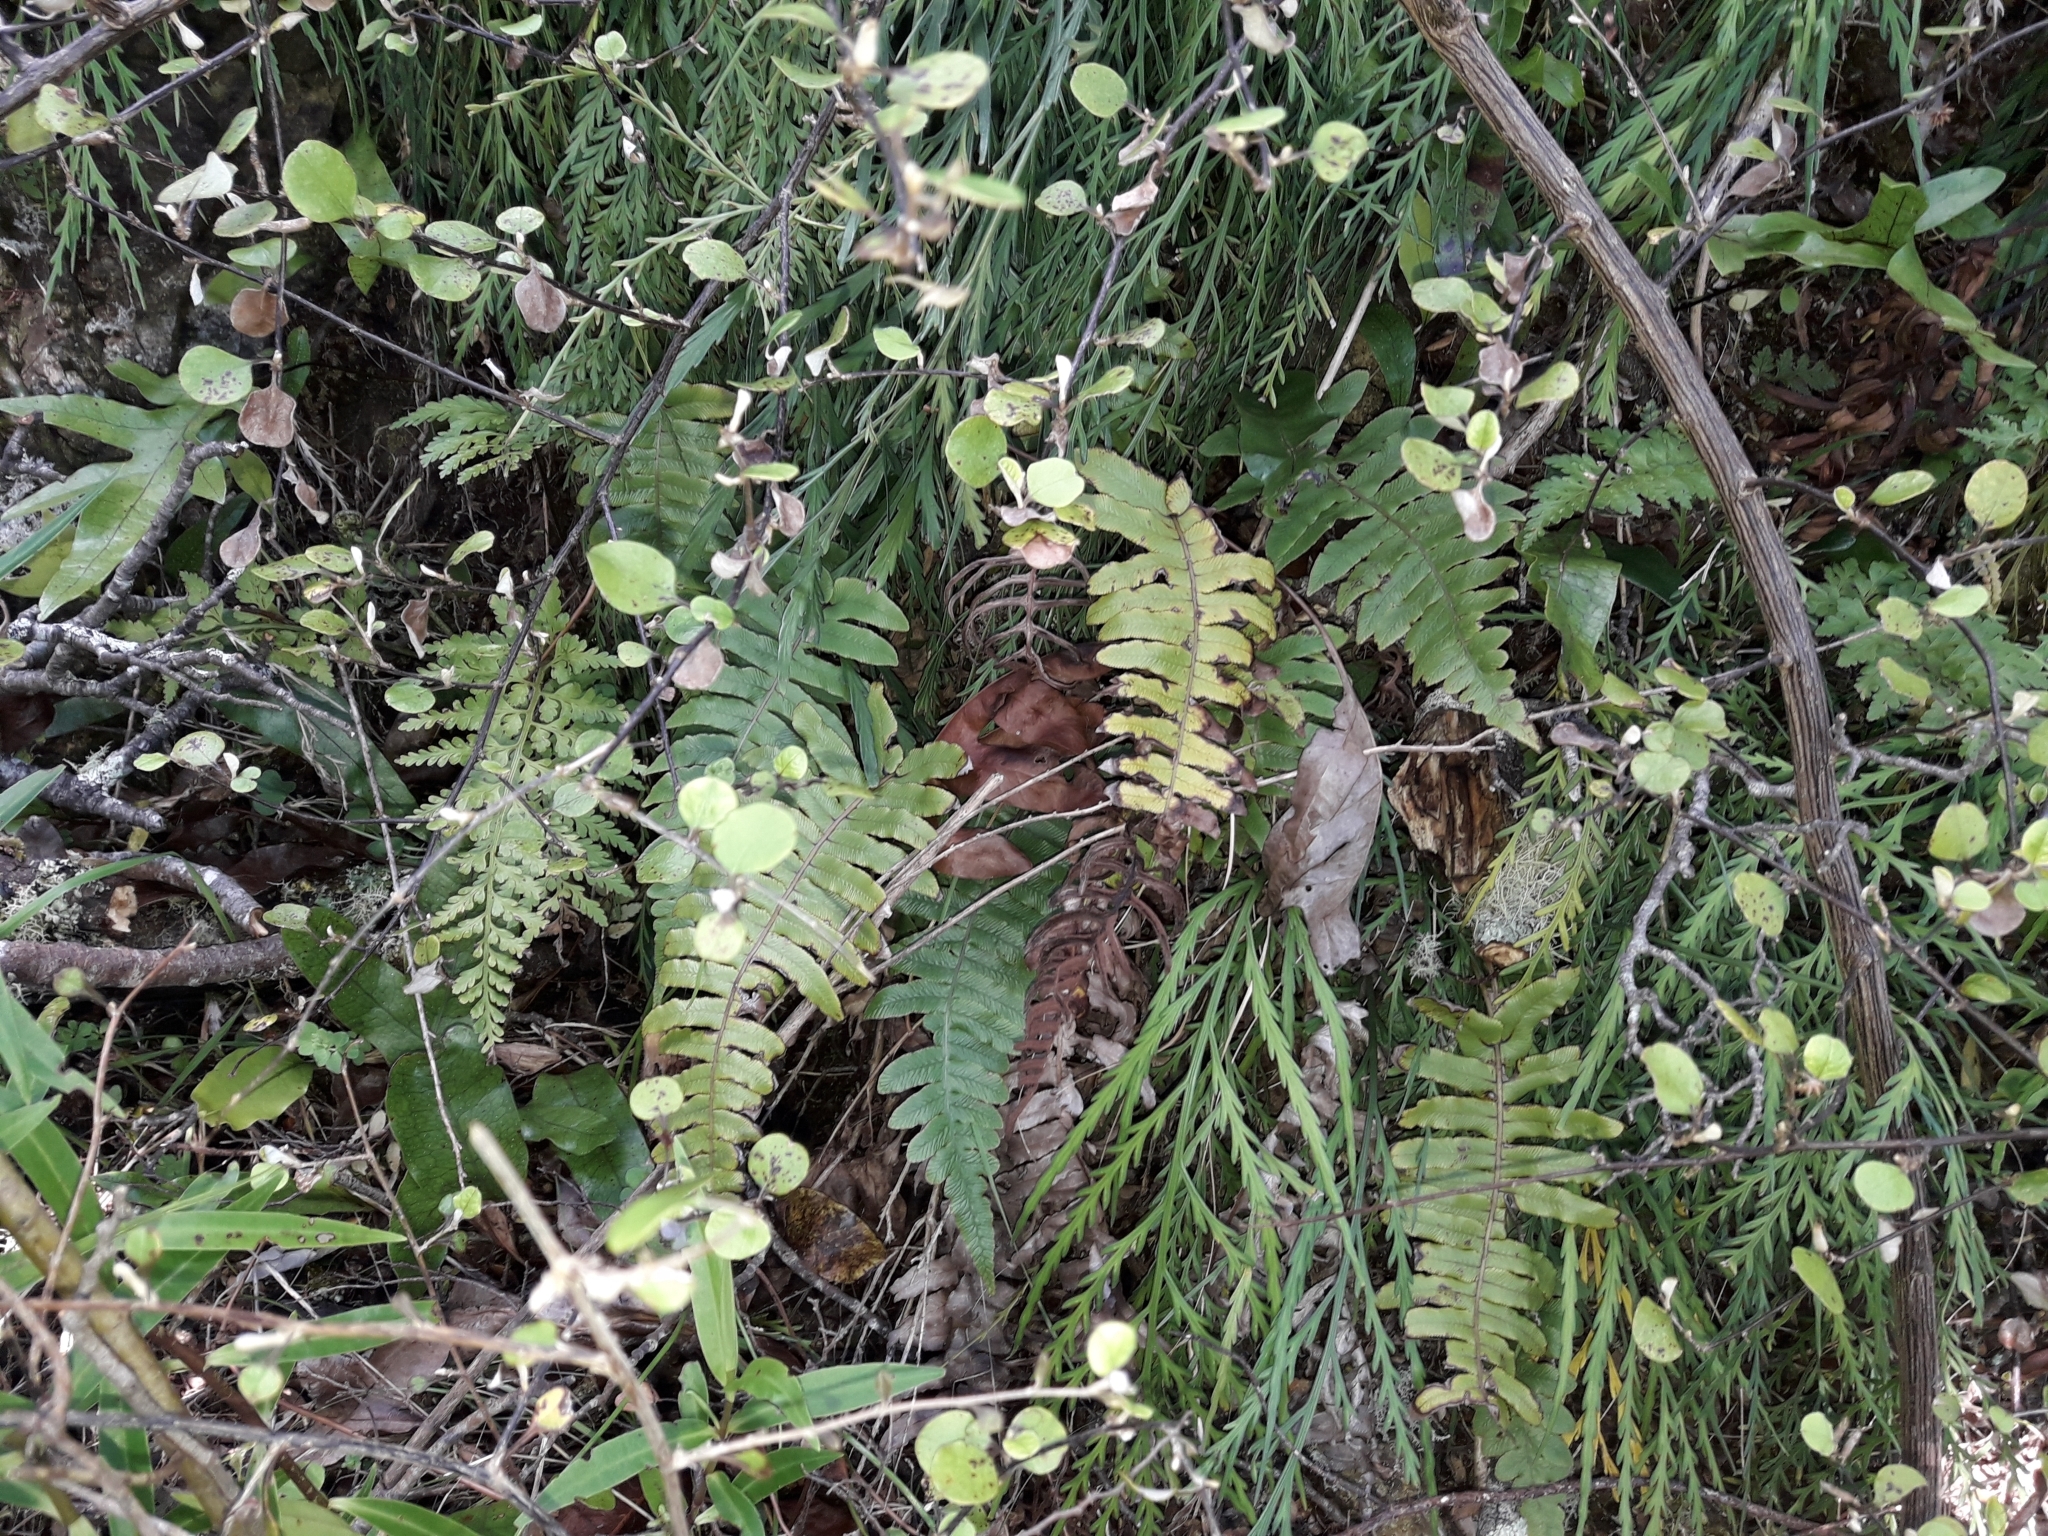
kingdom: Plantae
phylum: Tracheophyta
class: Polypodiopsida
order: Polypodiales
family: Blechnaceae
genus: Cranfillia
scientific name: Cranfillia deltoides
